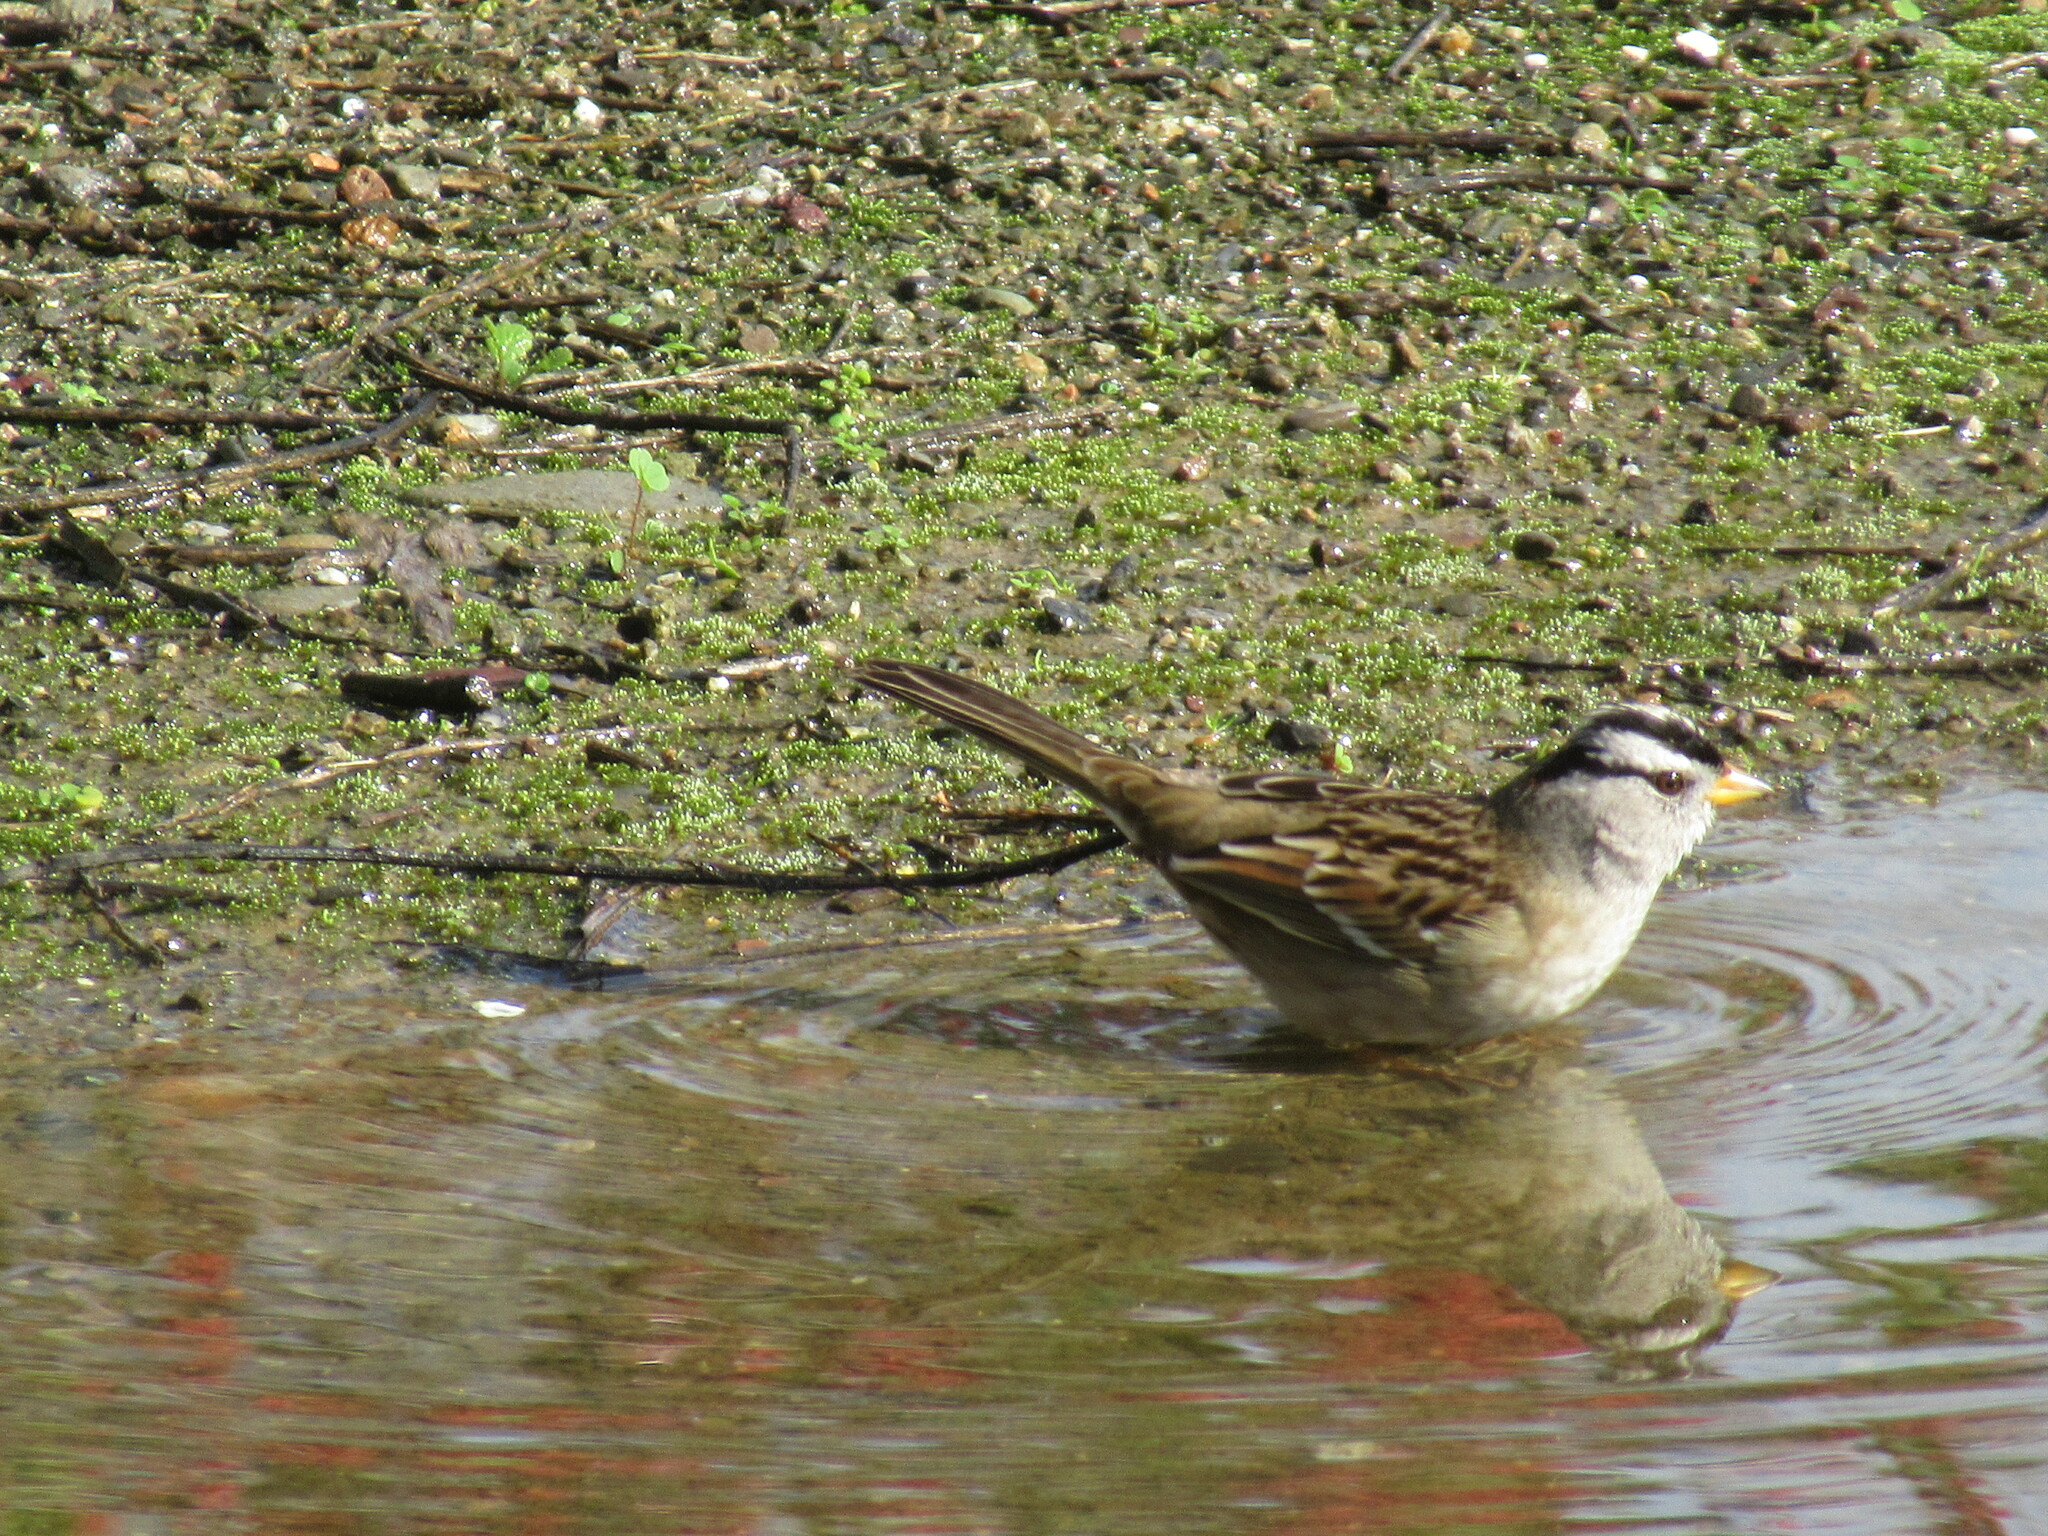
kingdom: Animalia
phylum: Chordata
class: Aves
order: Passeriformes
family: Passerellidae
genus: Zonotrichia
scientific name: Zonotrichia leucophrys
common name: White-crowned sparrow
